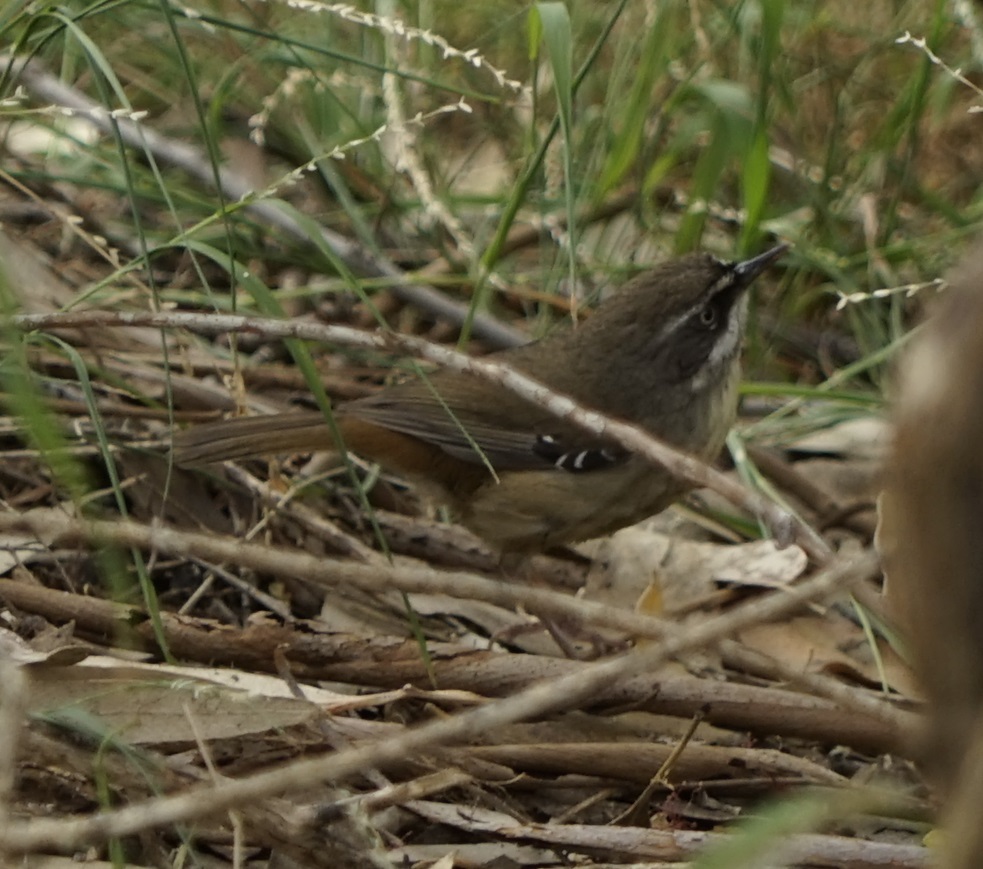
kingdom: Animalia
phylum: Chordata
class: Aves
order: Passeriformes
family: Acanthizidae
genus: Sericornis
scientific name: Sericornis frontalis
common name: White-browed scrubwren
